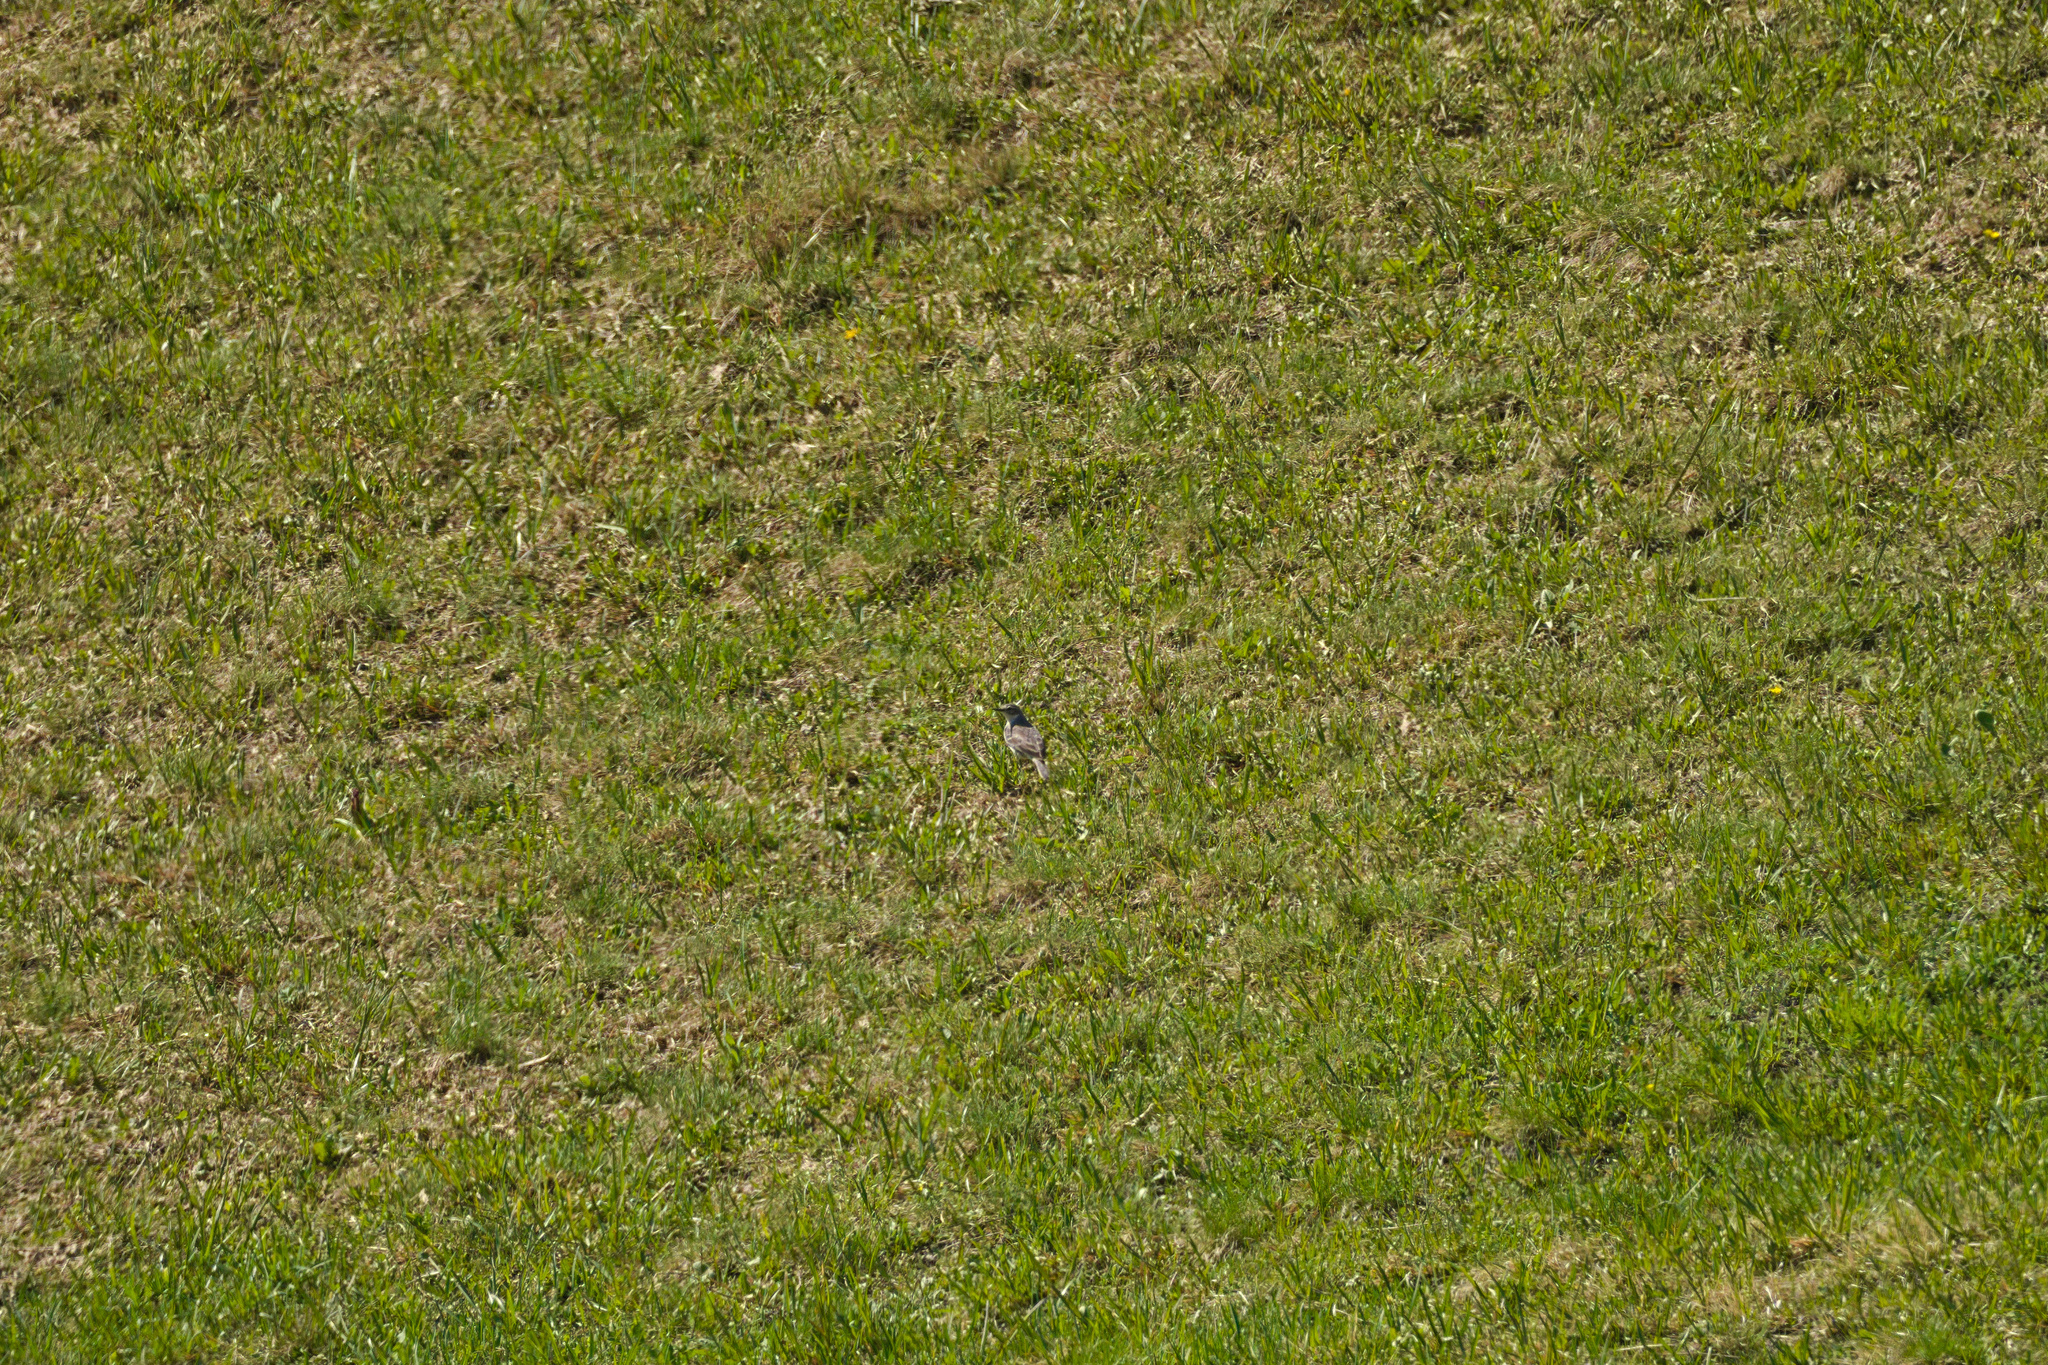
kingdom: Animalia
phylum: Chordata
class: Aves
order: Passeriformes
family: Muscicapidae
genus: Oenanthe
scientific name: Oenanthe oenanthe
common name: Northern wheatear
